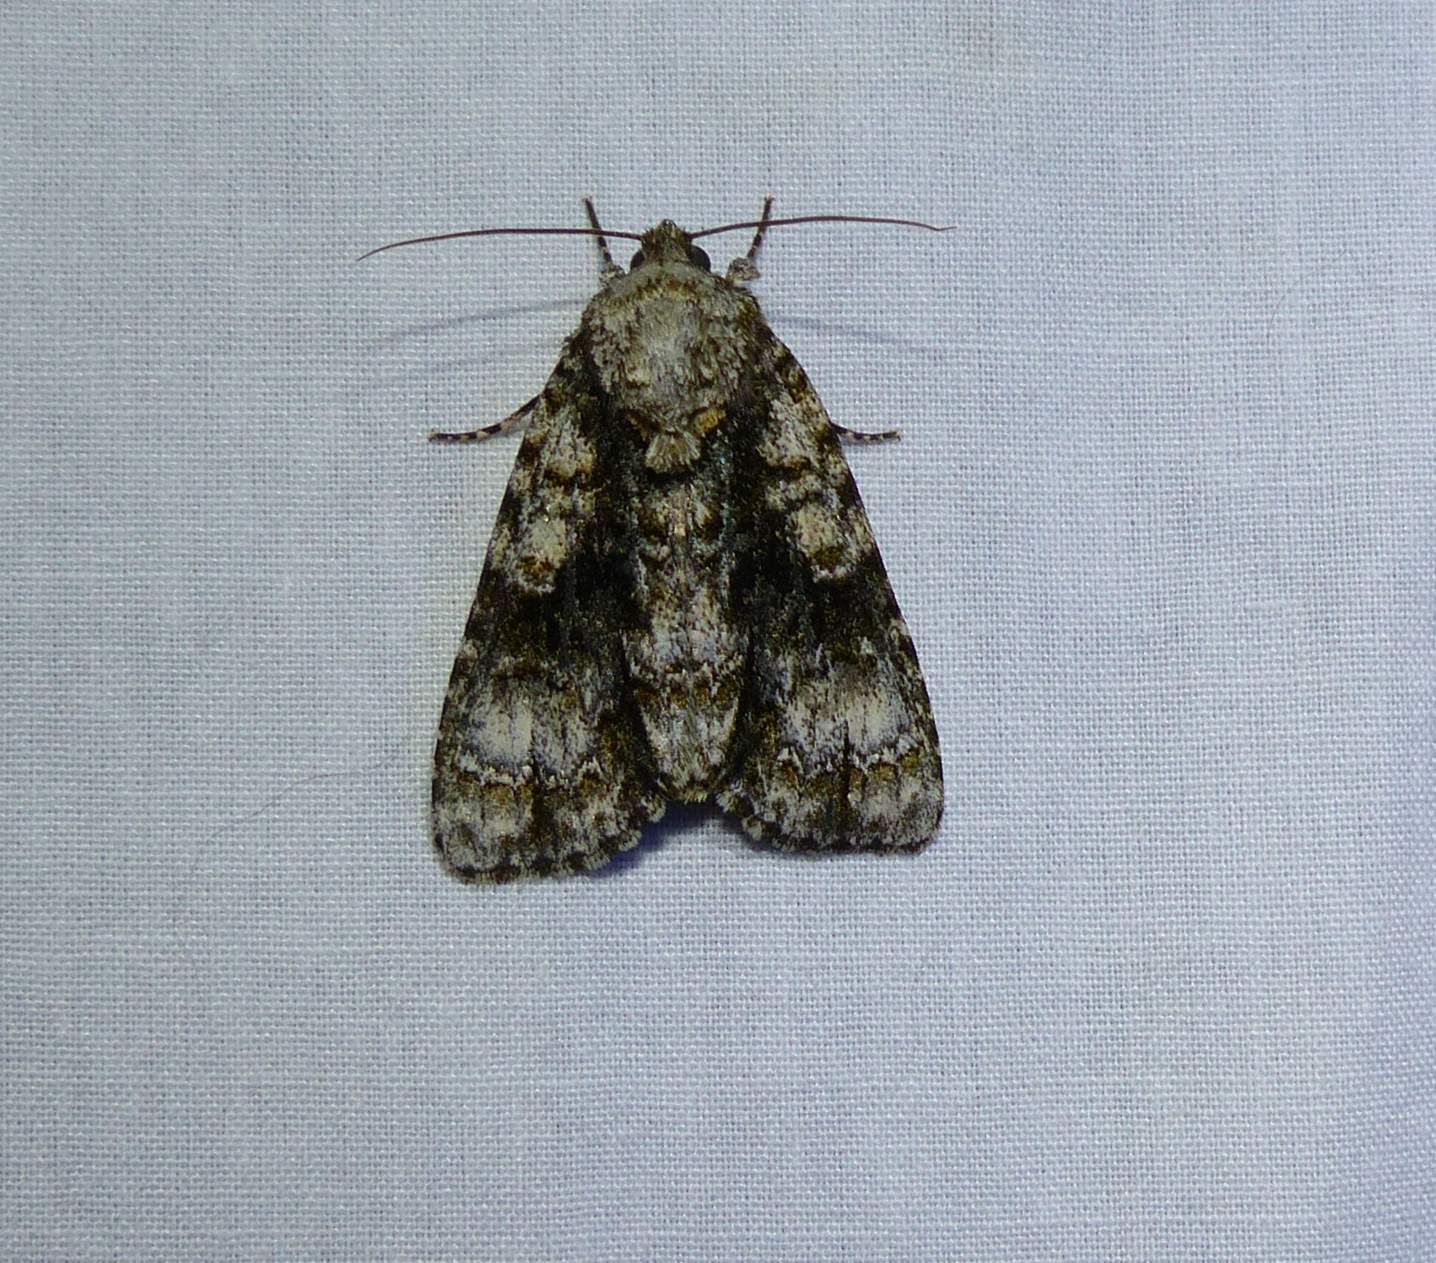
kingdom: Animalia
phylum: Arthropoda
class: Insecta
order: Lepidoptera
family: Noctuidae
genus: Acronicta
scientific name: Acronicta superans
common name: Splendid dagger
